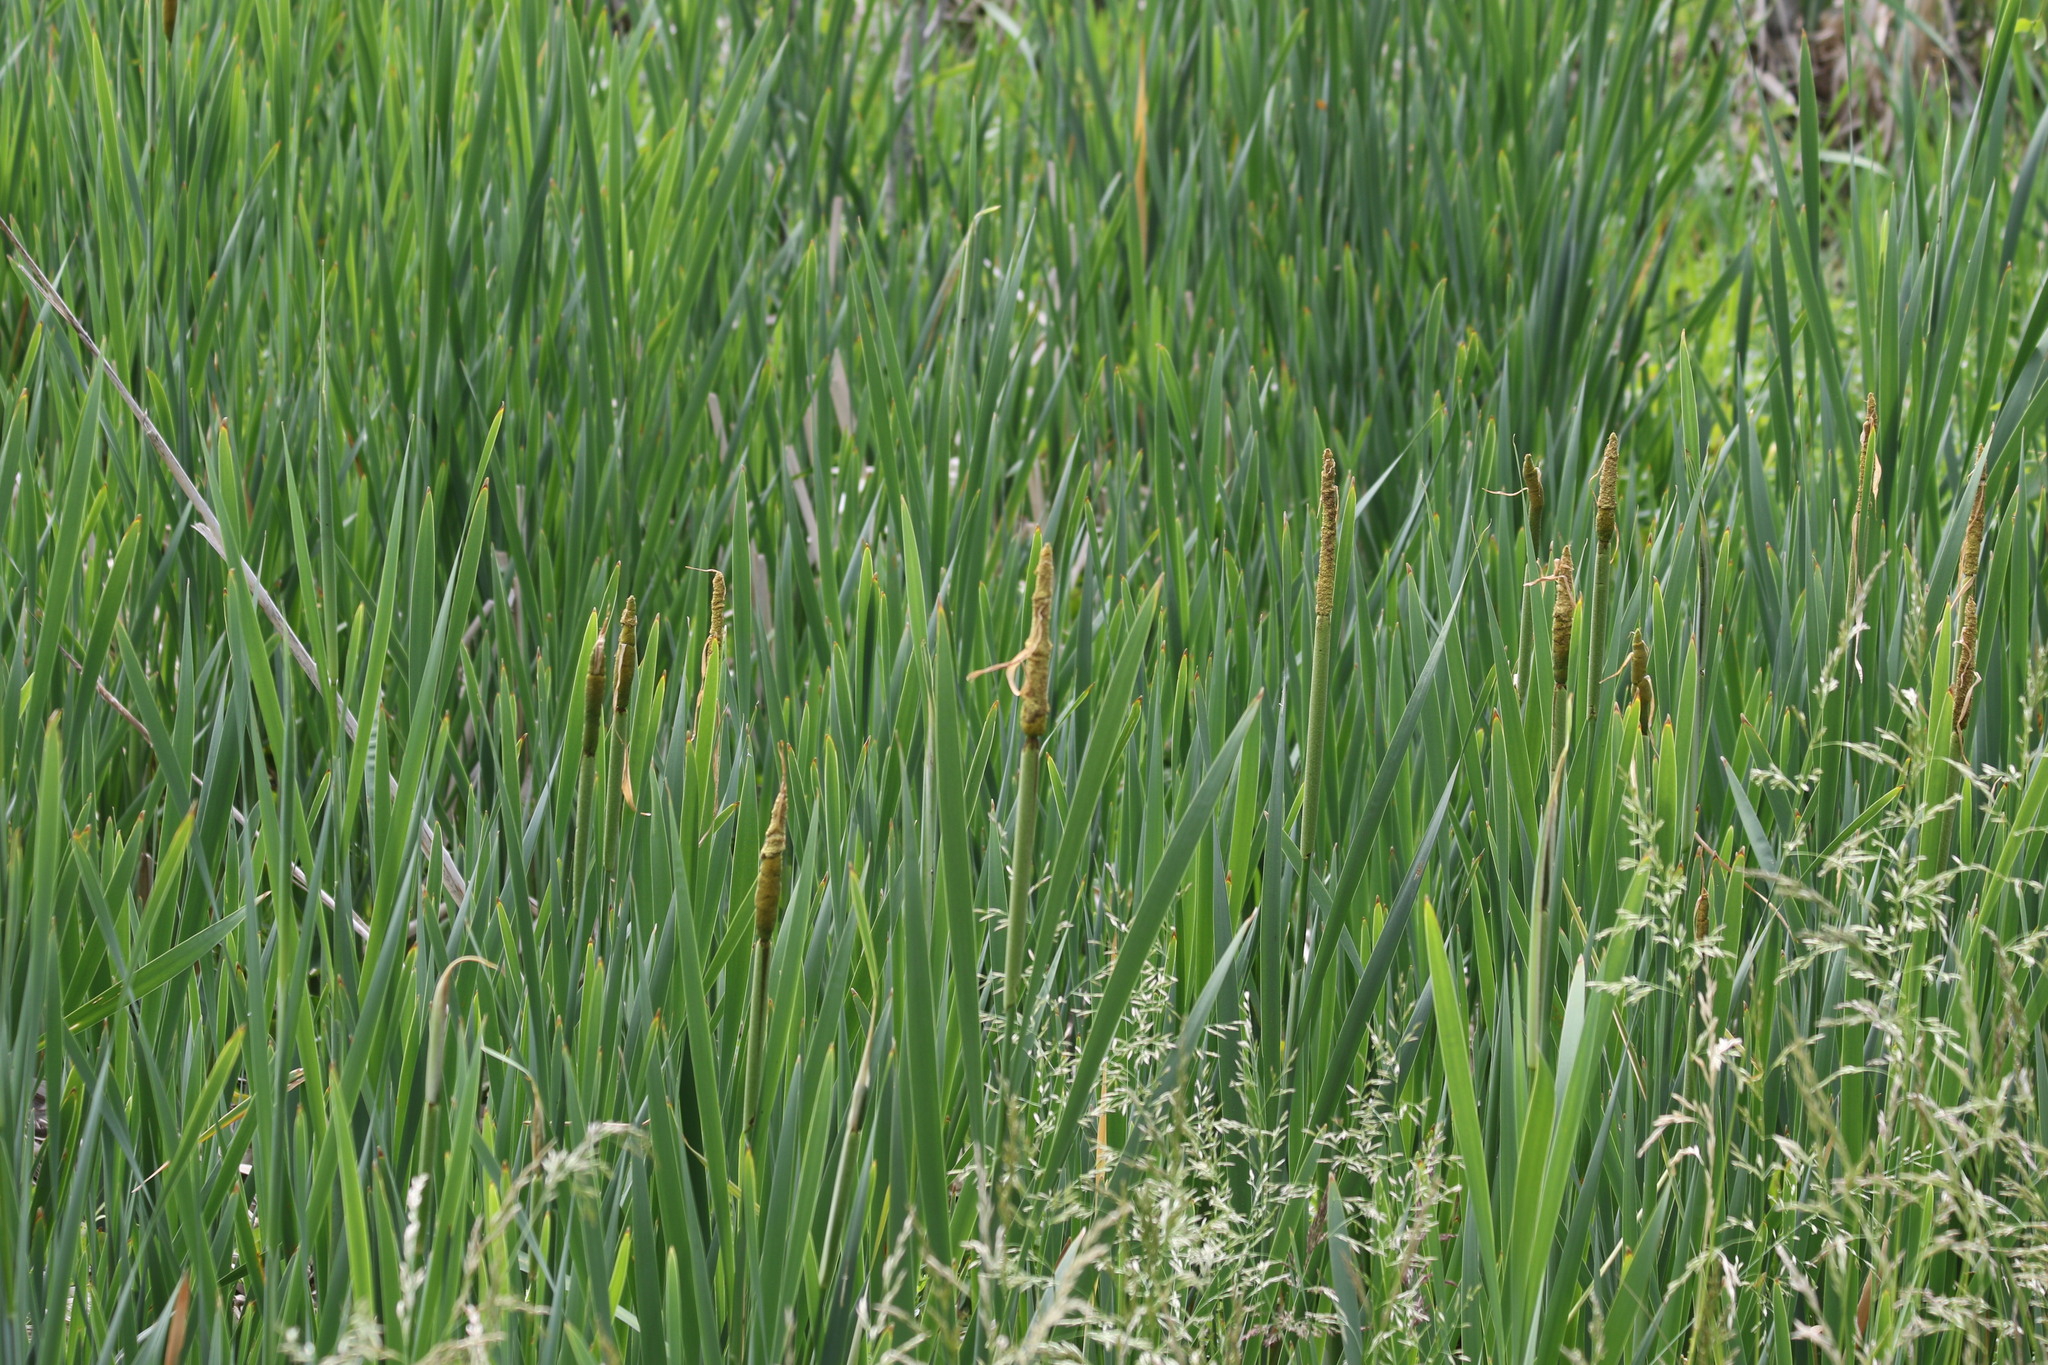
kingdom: Plantae
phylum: Tracheophyta
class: Liliopsida
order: Poales
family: Typhaceae
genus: Typha
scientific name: Typha angustifolia
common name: Lesser bulrush
